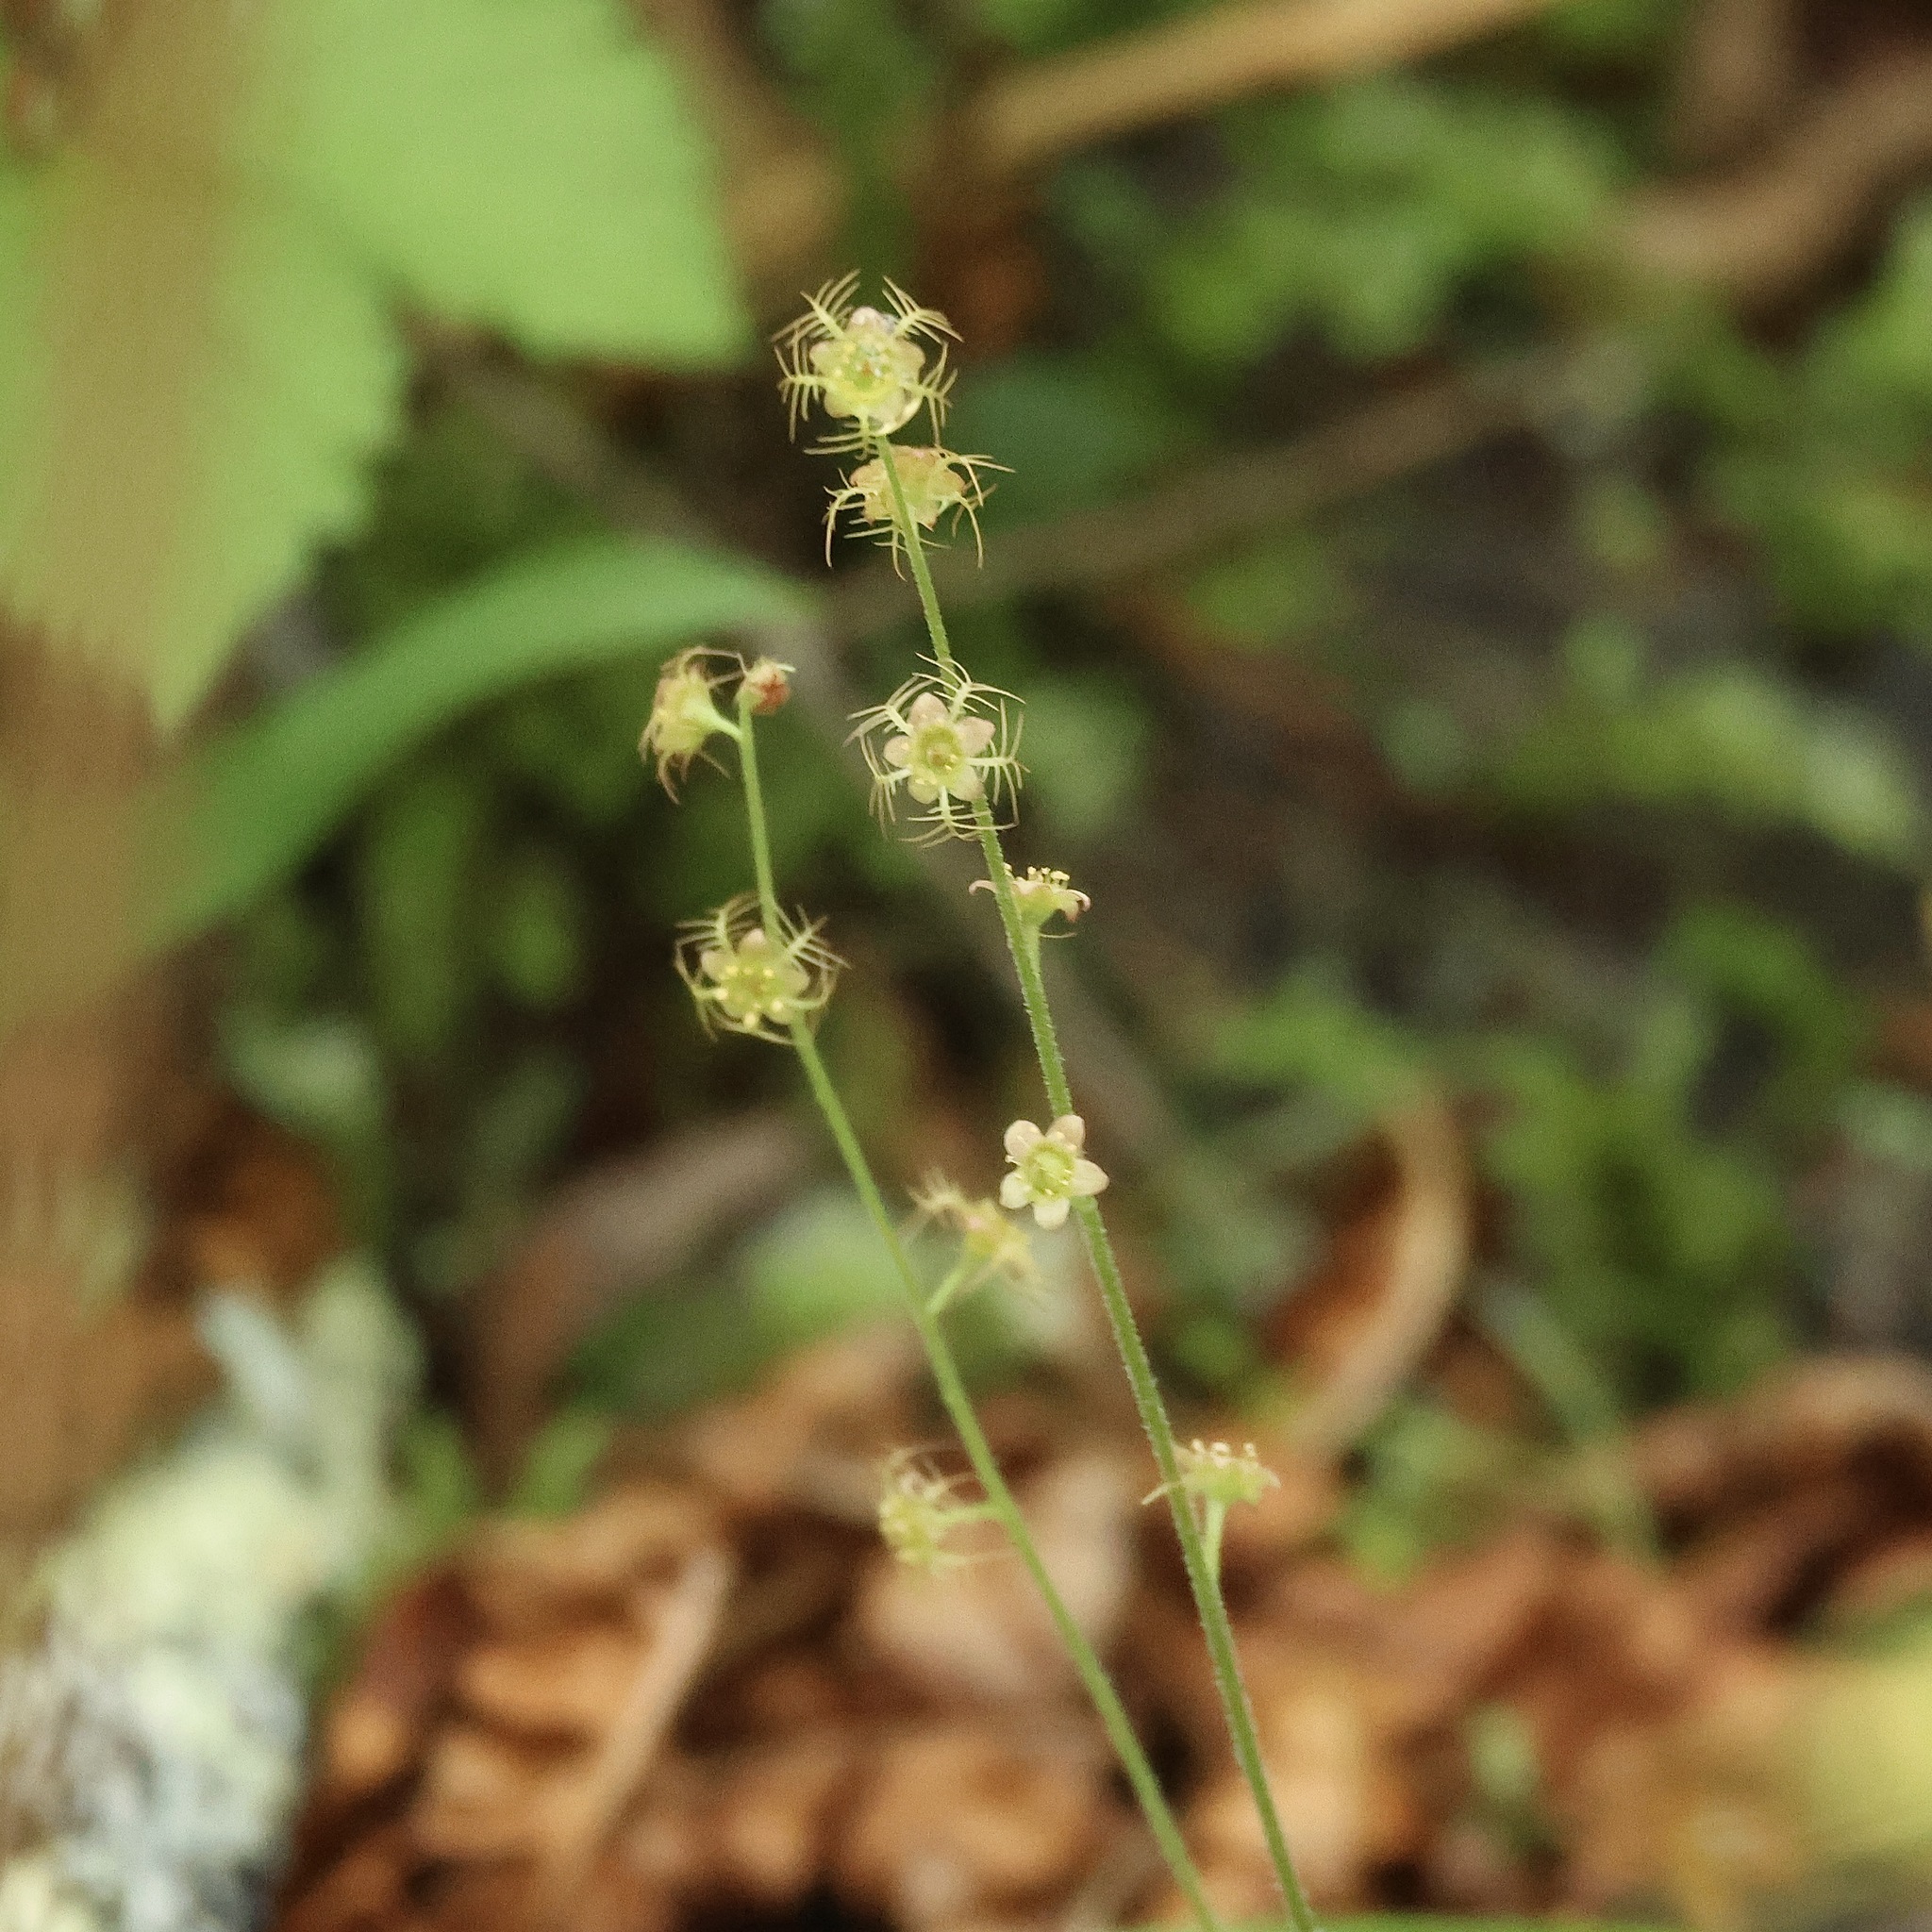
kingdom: Plantae
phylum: Tracheophyta
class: Magnoliopsida
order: Saxifragales
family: Saxifragaceae
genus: Mitella
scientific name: Mitella nuda
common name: Bare-stemmed bishop's-cap
